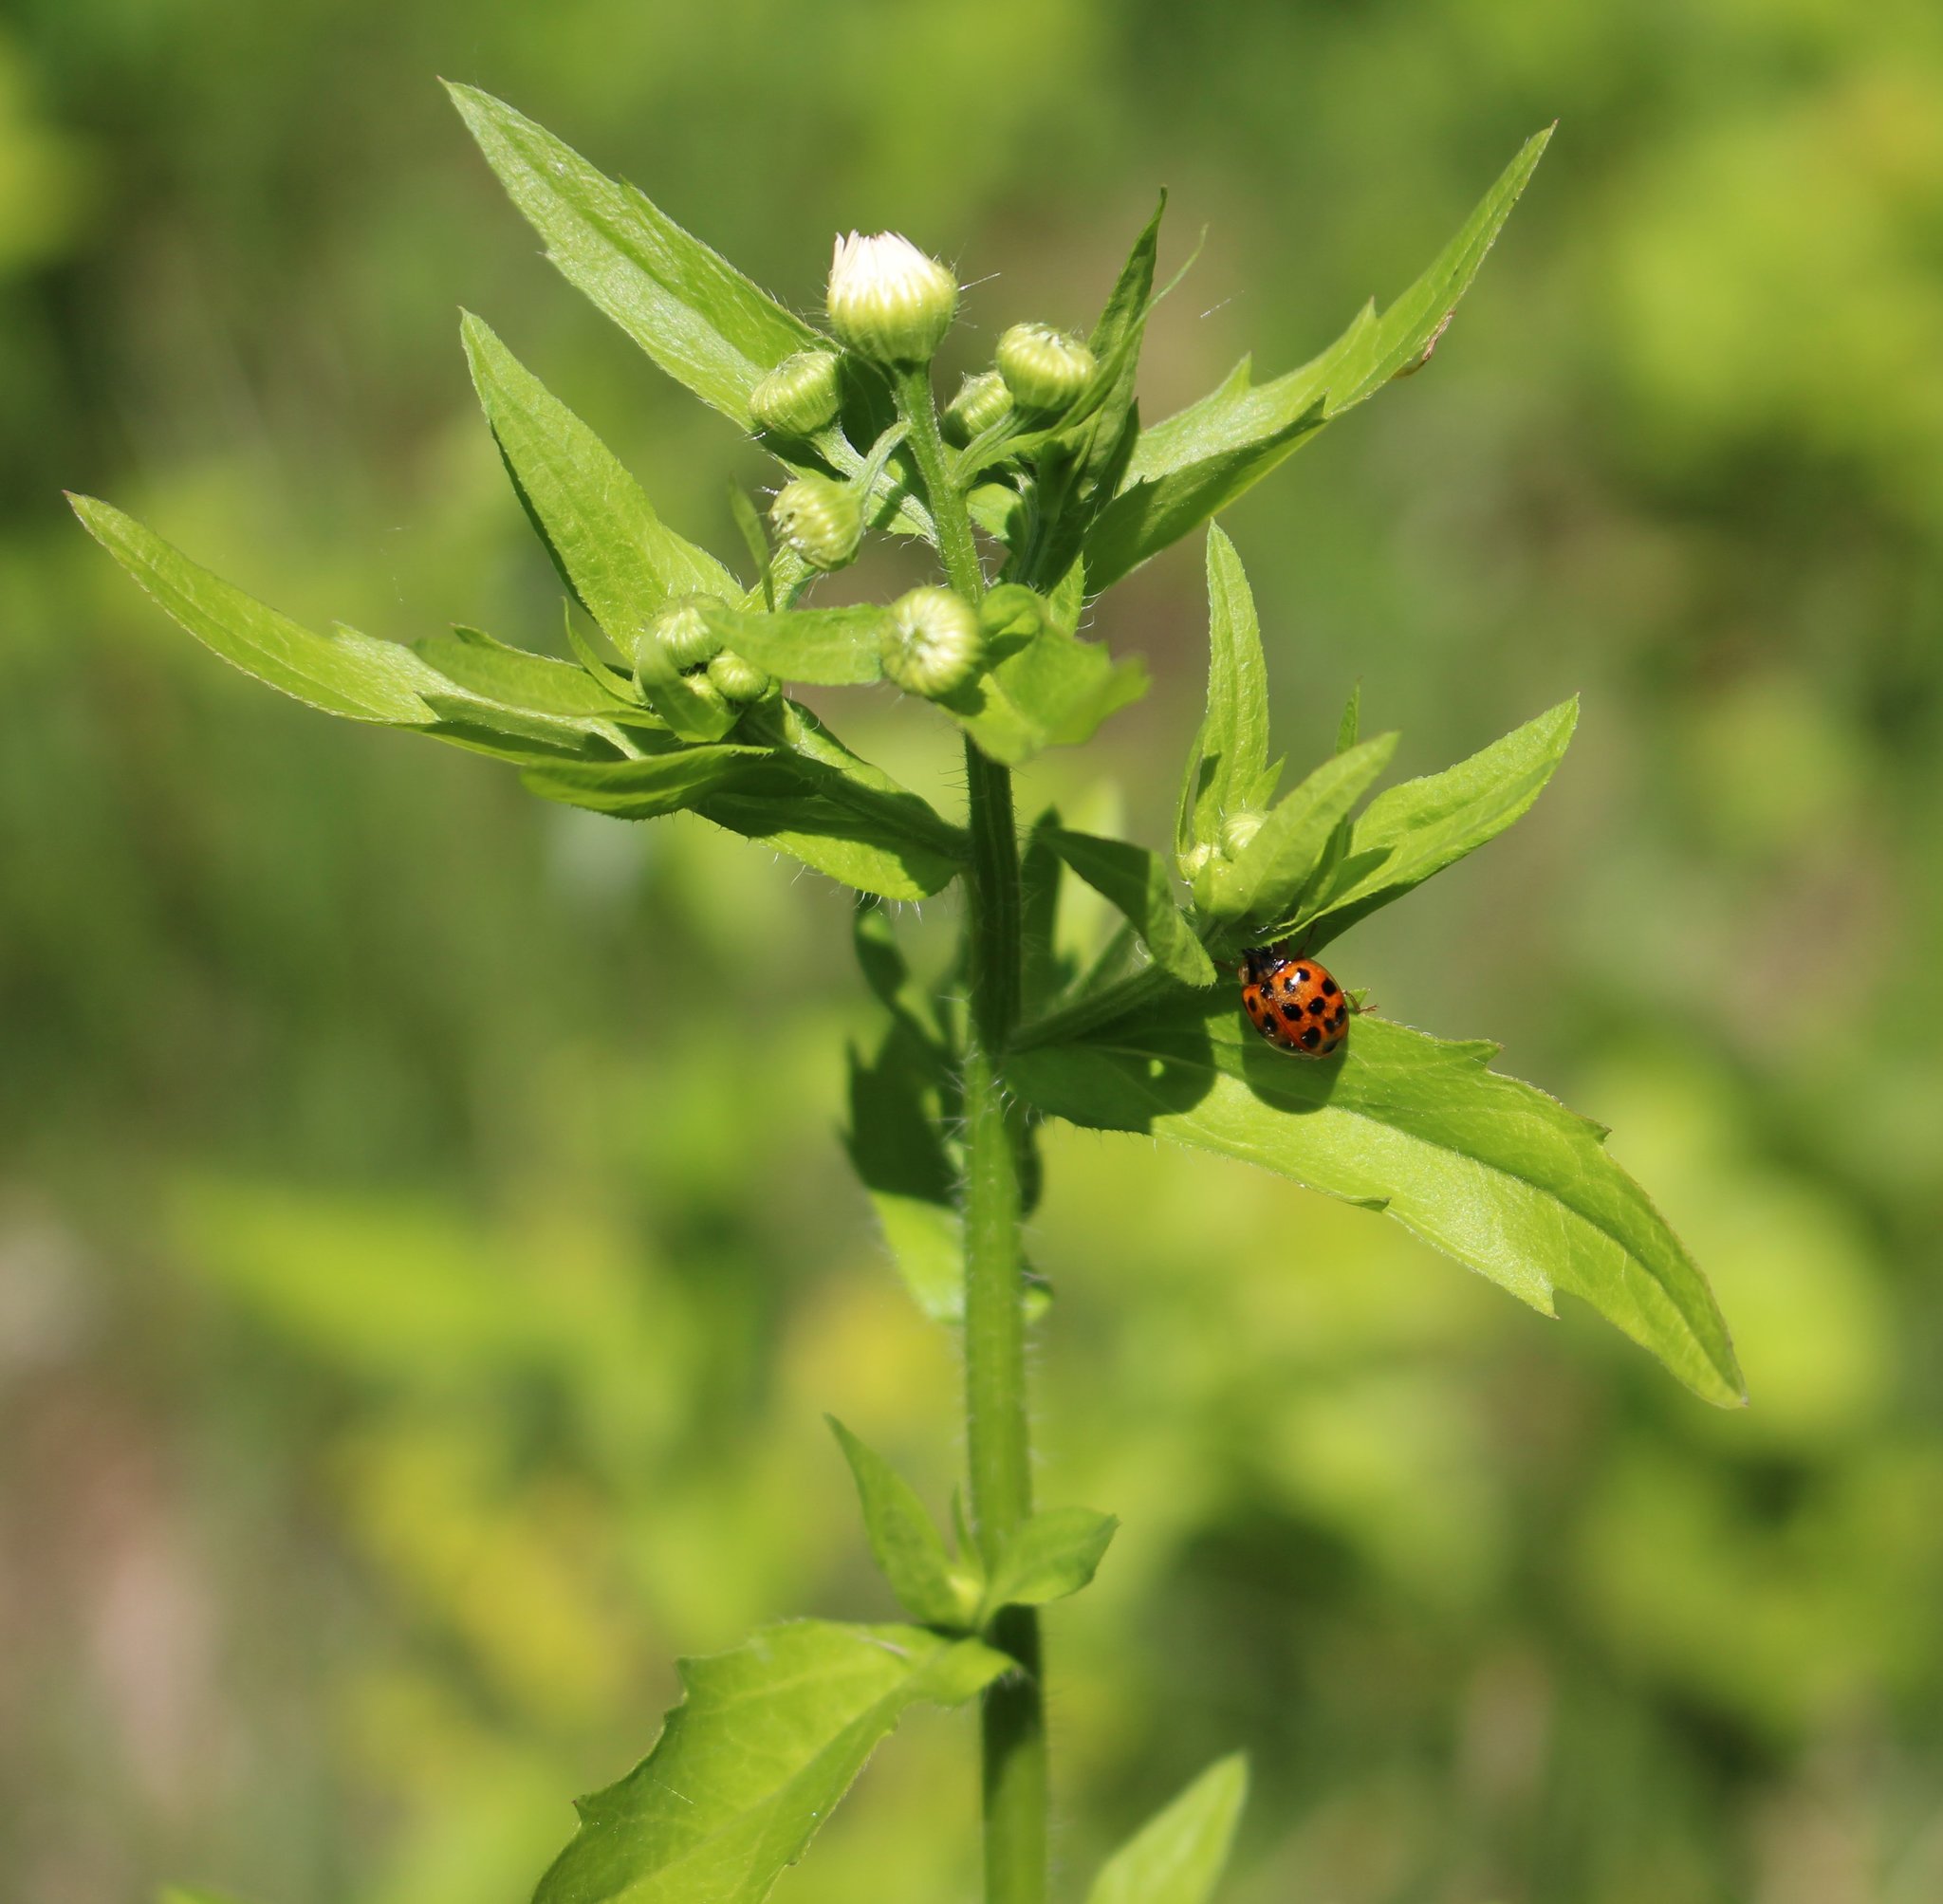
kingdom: Plantae
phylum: Tracheophyta
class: Magnoliopsida
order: Asterales
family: Asteraceae
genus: Erigeron
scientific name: Erigeron annuus
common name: Tall fleabane
